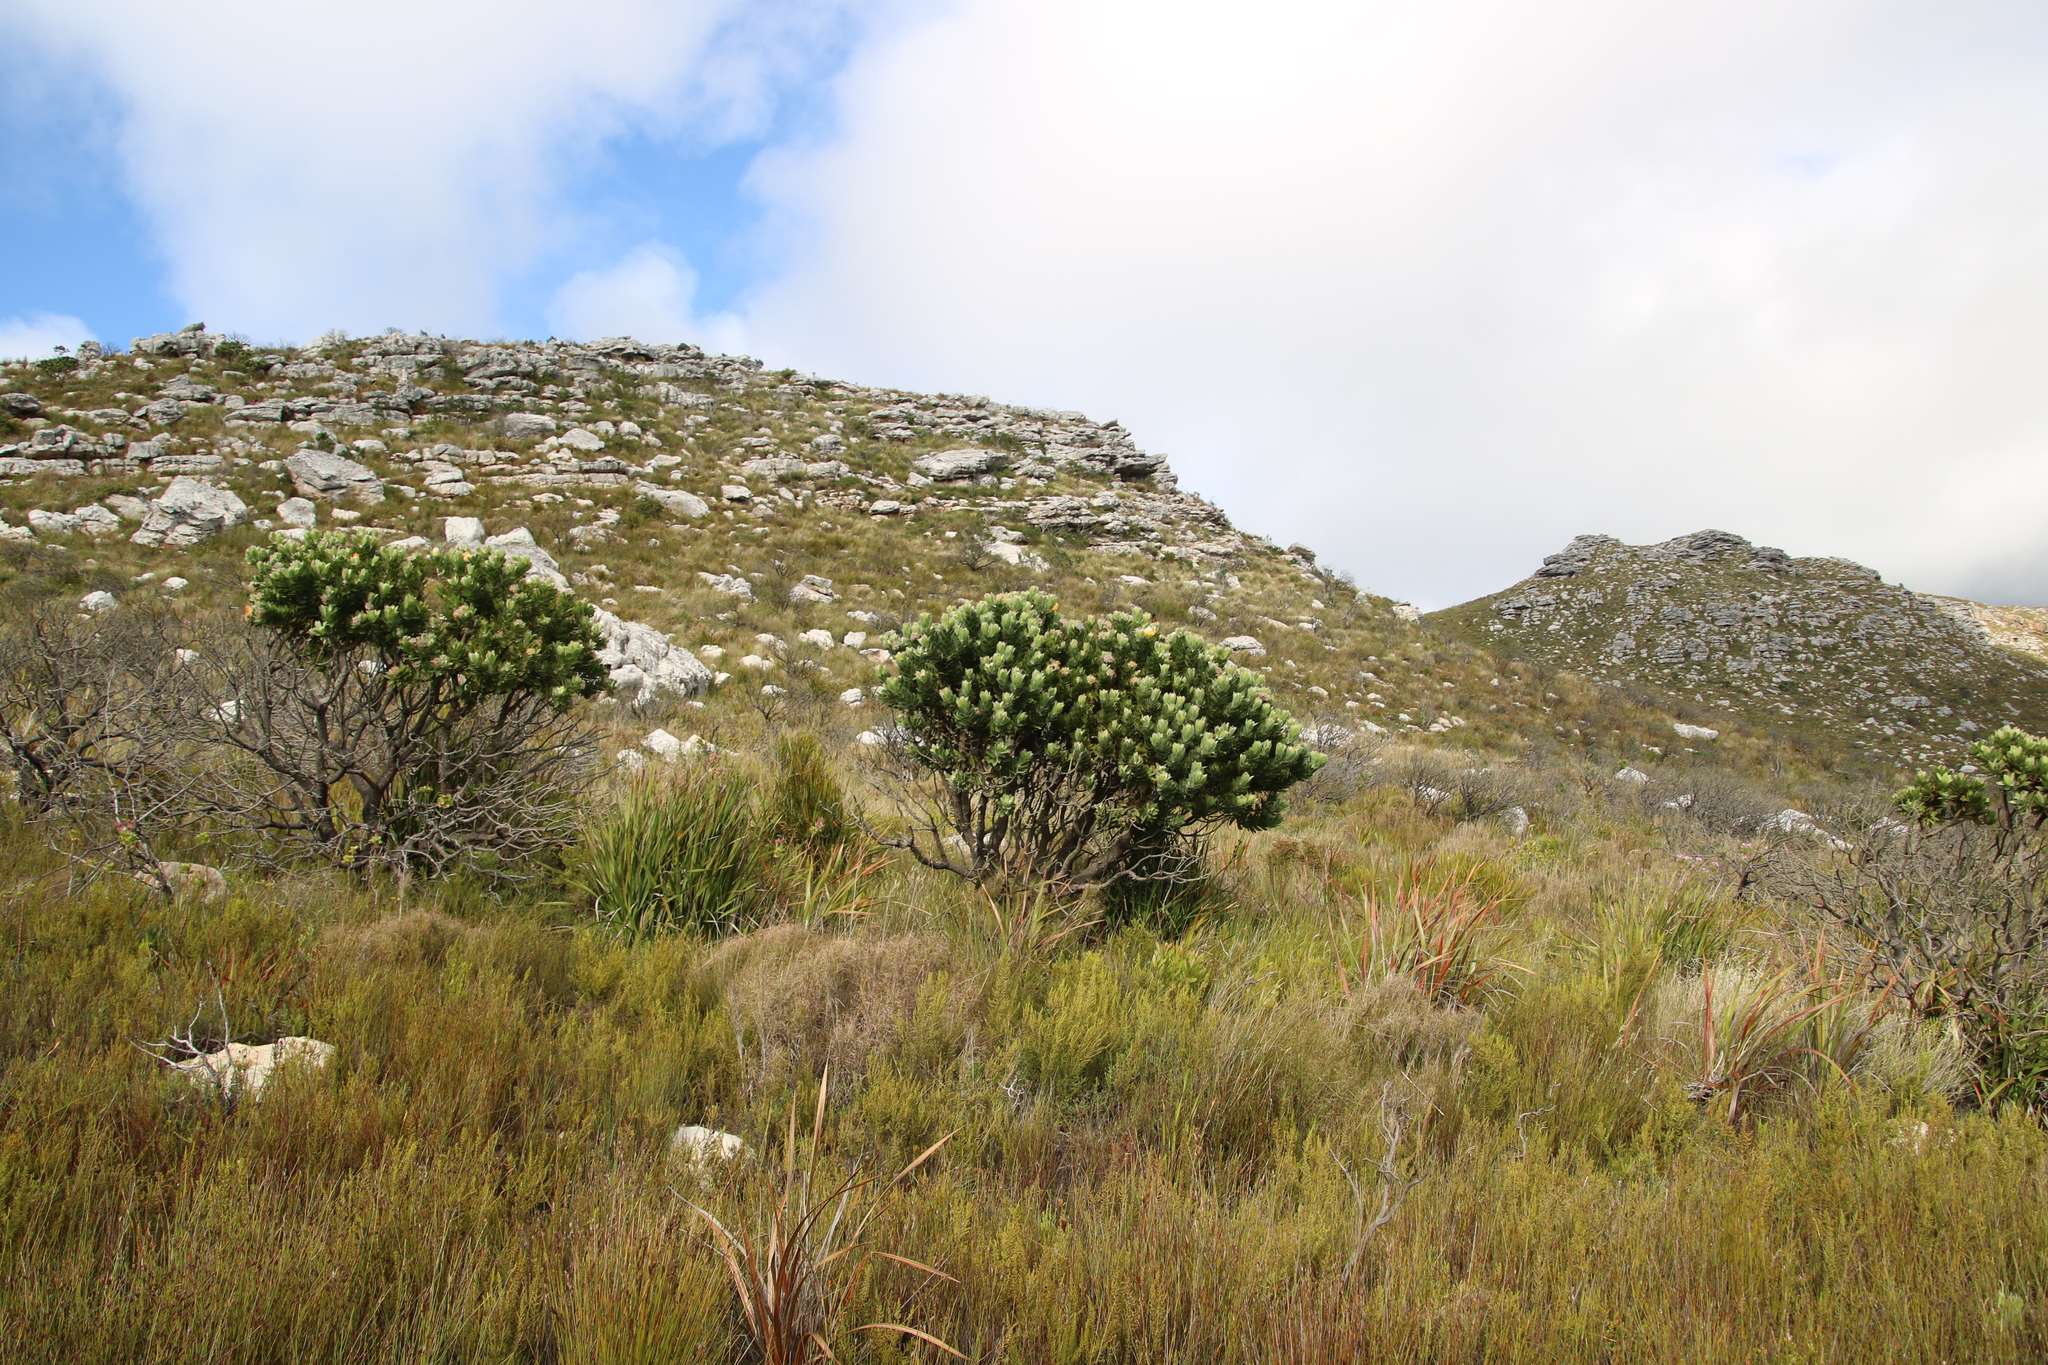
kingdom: Plantae
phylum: Tracheophyta
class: Magnoliopsida
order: Proteales
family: Proteaceae
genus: Leucospermum
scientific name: Leucospermum conocarpodendron
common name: Tree pincushion
